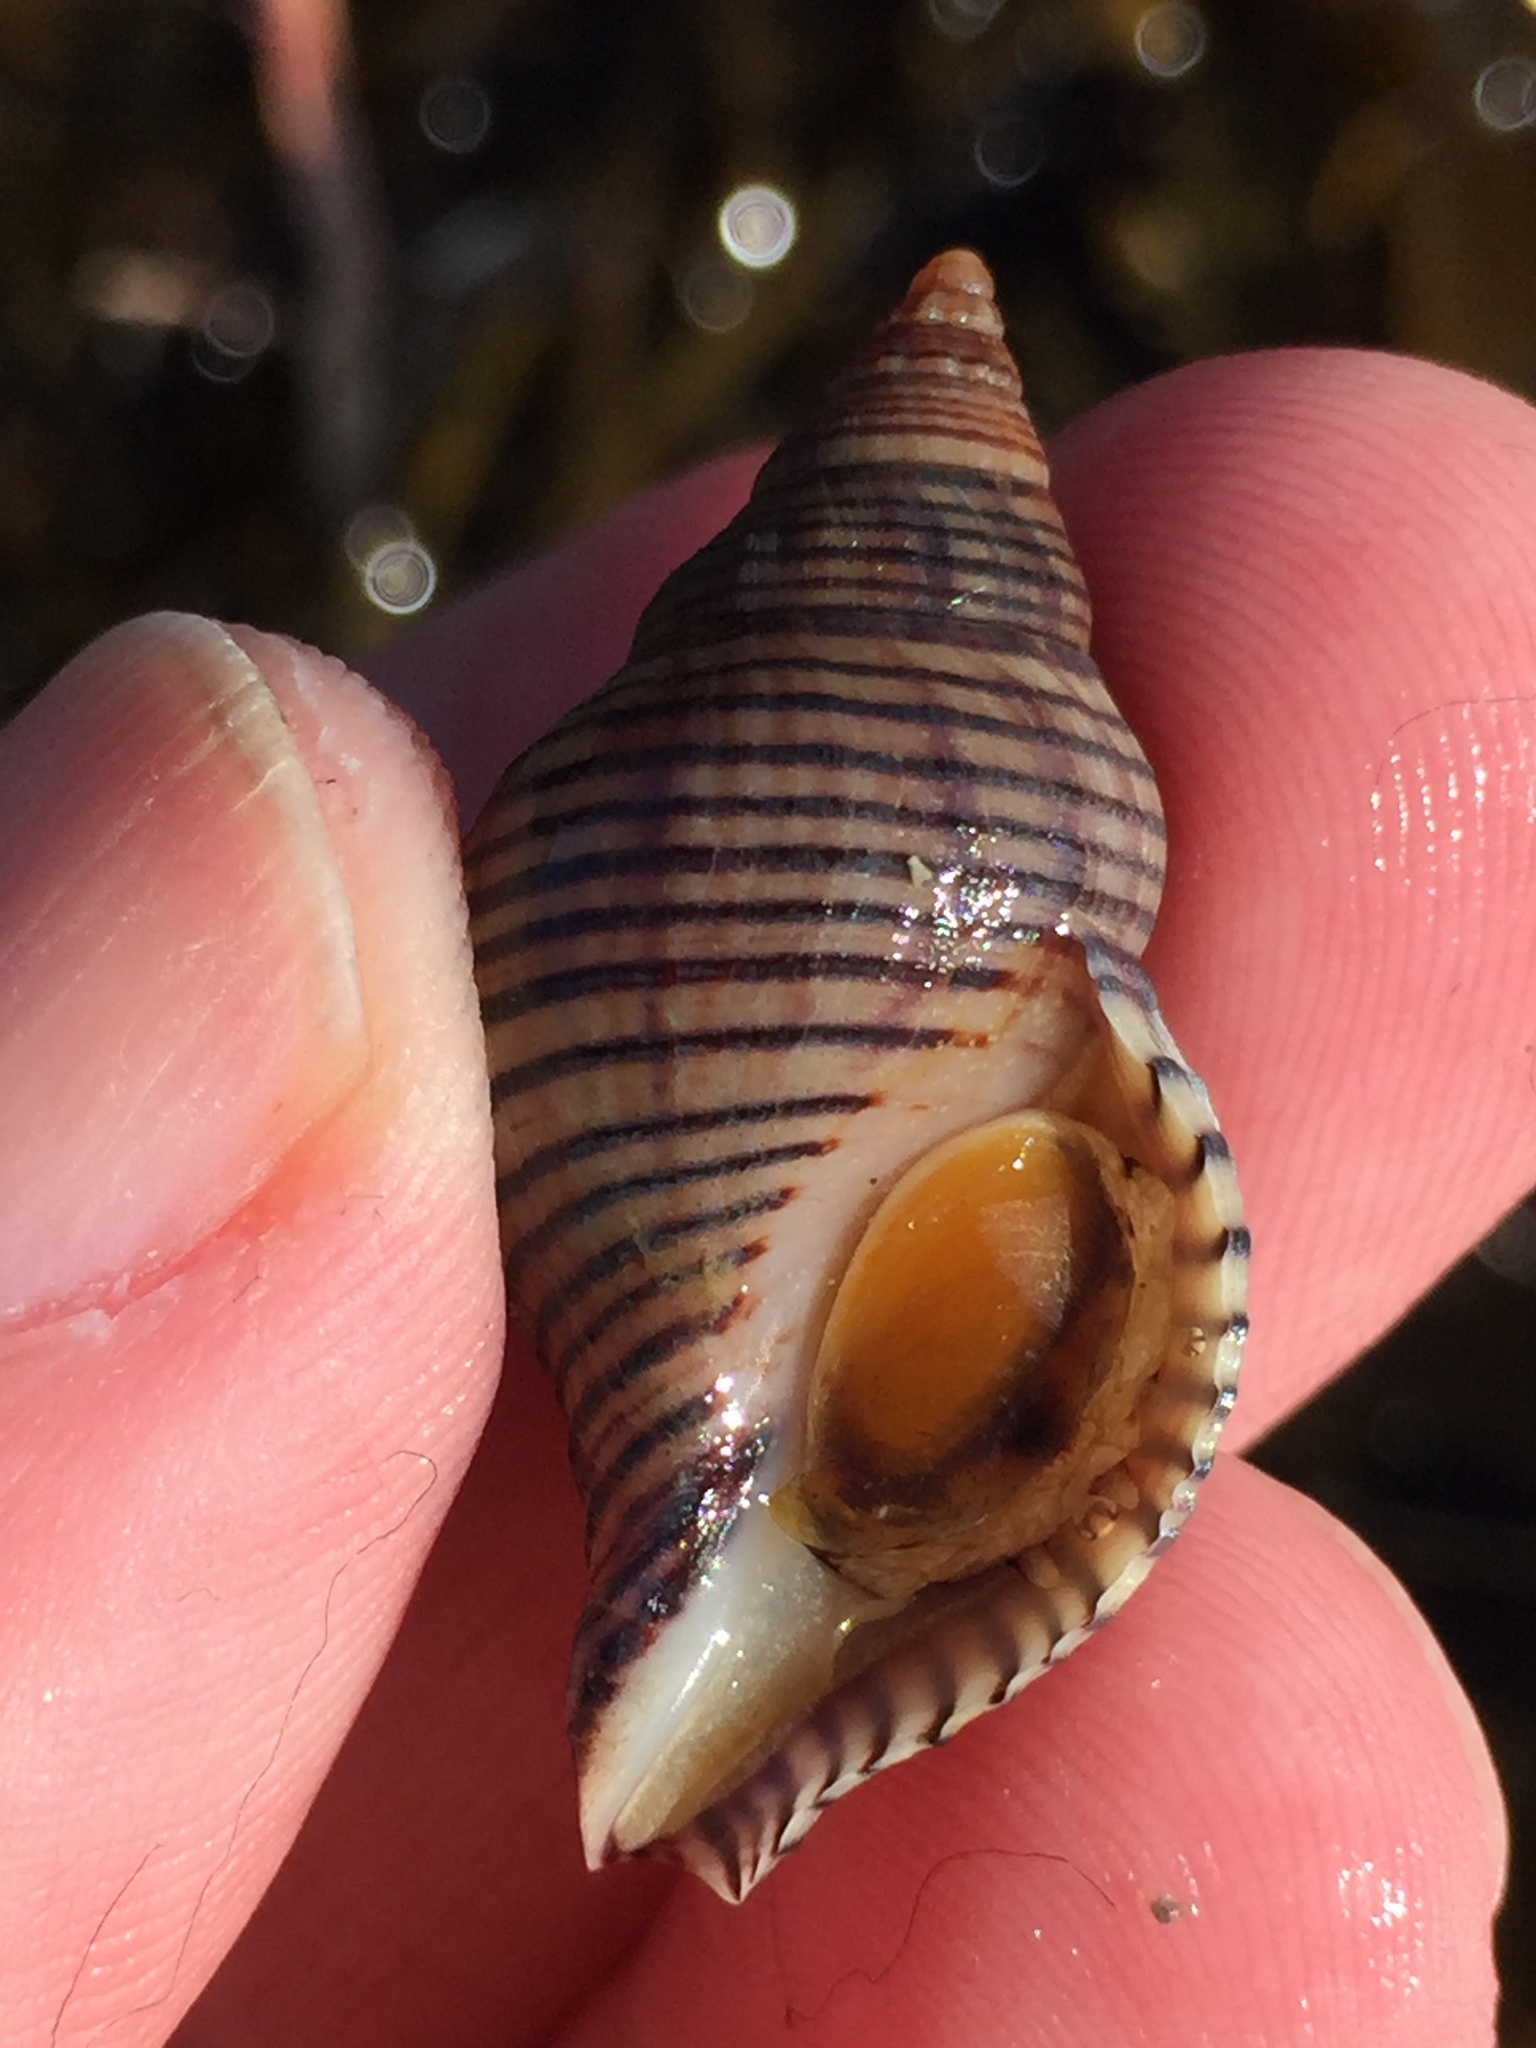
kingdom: Animalia
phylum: Mollusca
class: Gastropoda
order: Neogastropoda
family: Tudiclidae
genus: Buccinulum
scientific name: Buccinulum linea
